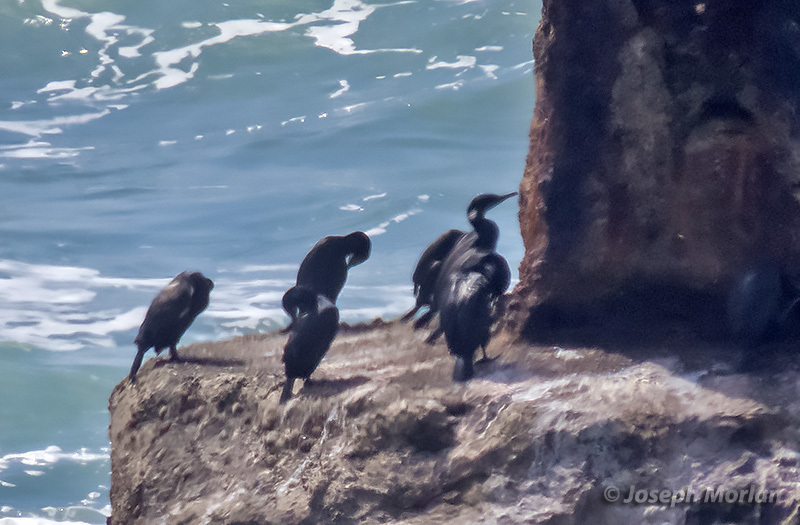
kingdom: Animalia
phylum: Chordata
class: Aves
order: Suliformes
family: Phalacrocoracidae
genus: Urile
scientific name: Urile penicillatus
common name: Brandt's cormorant
